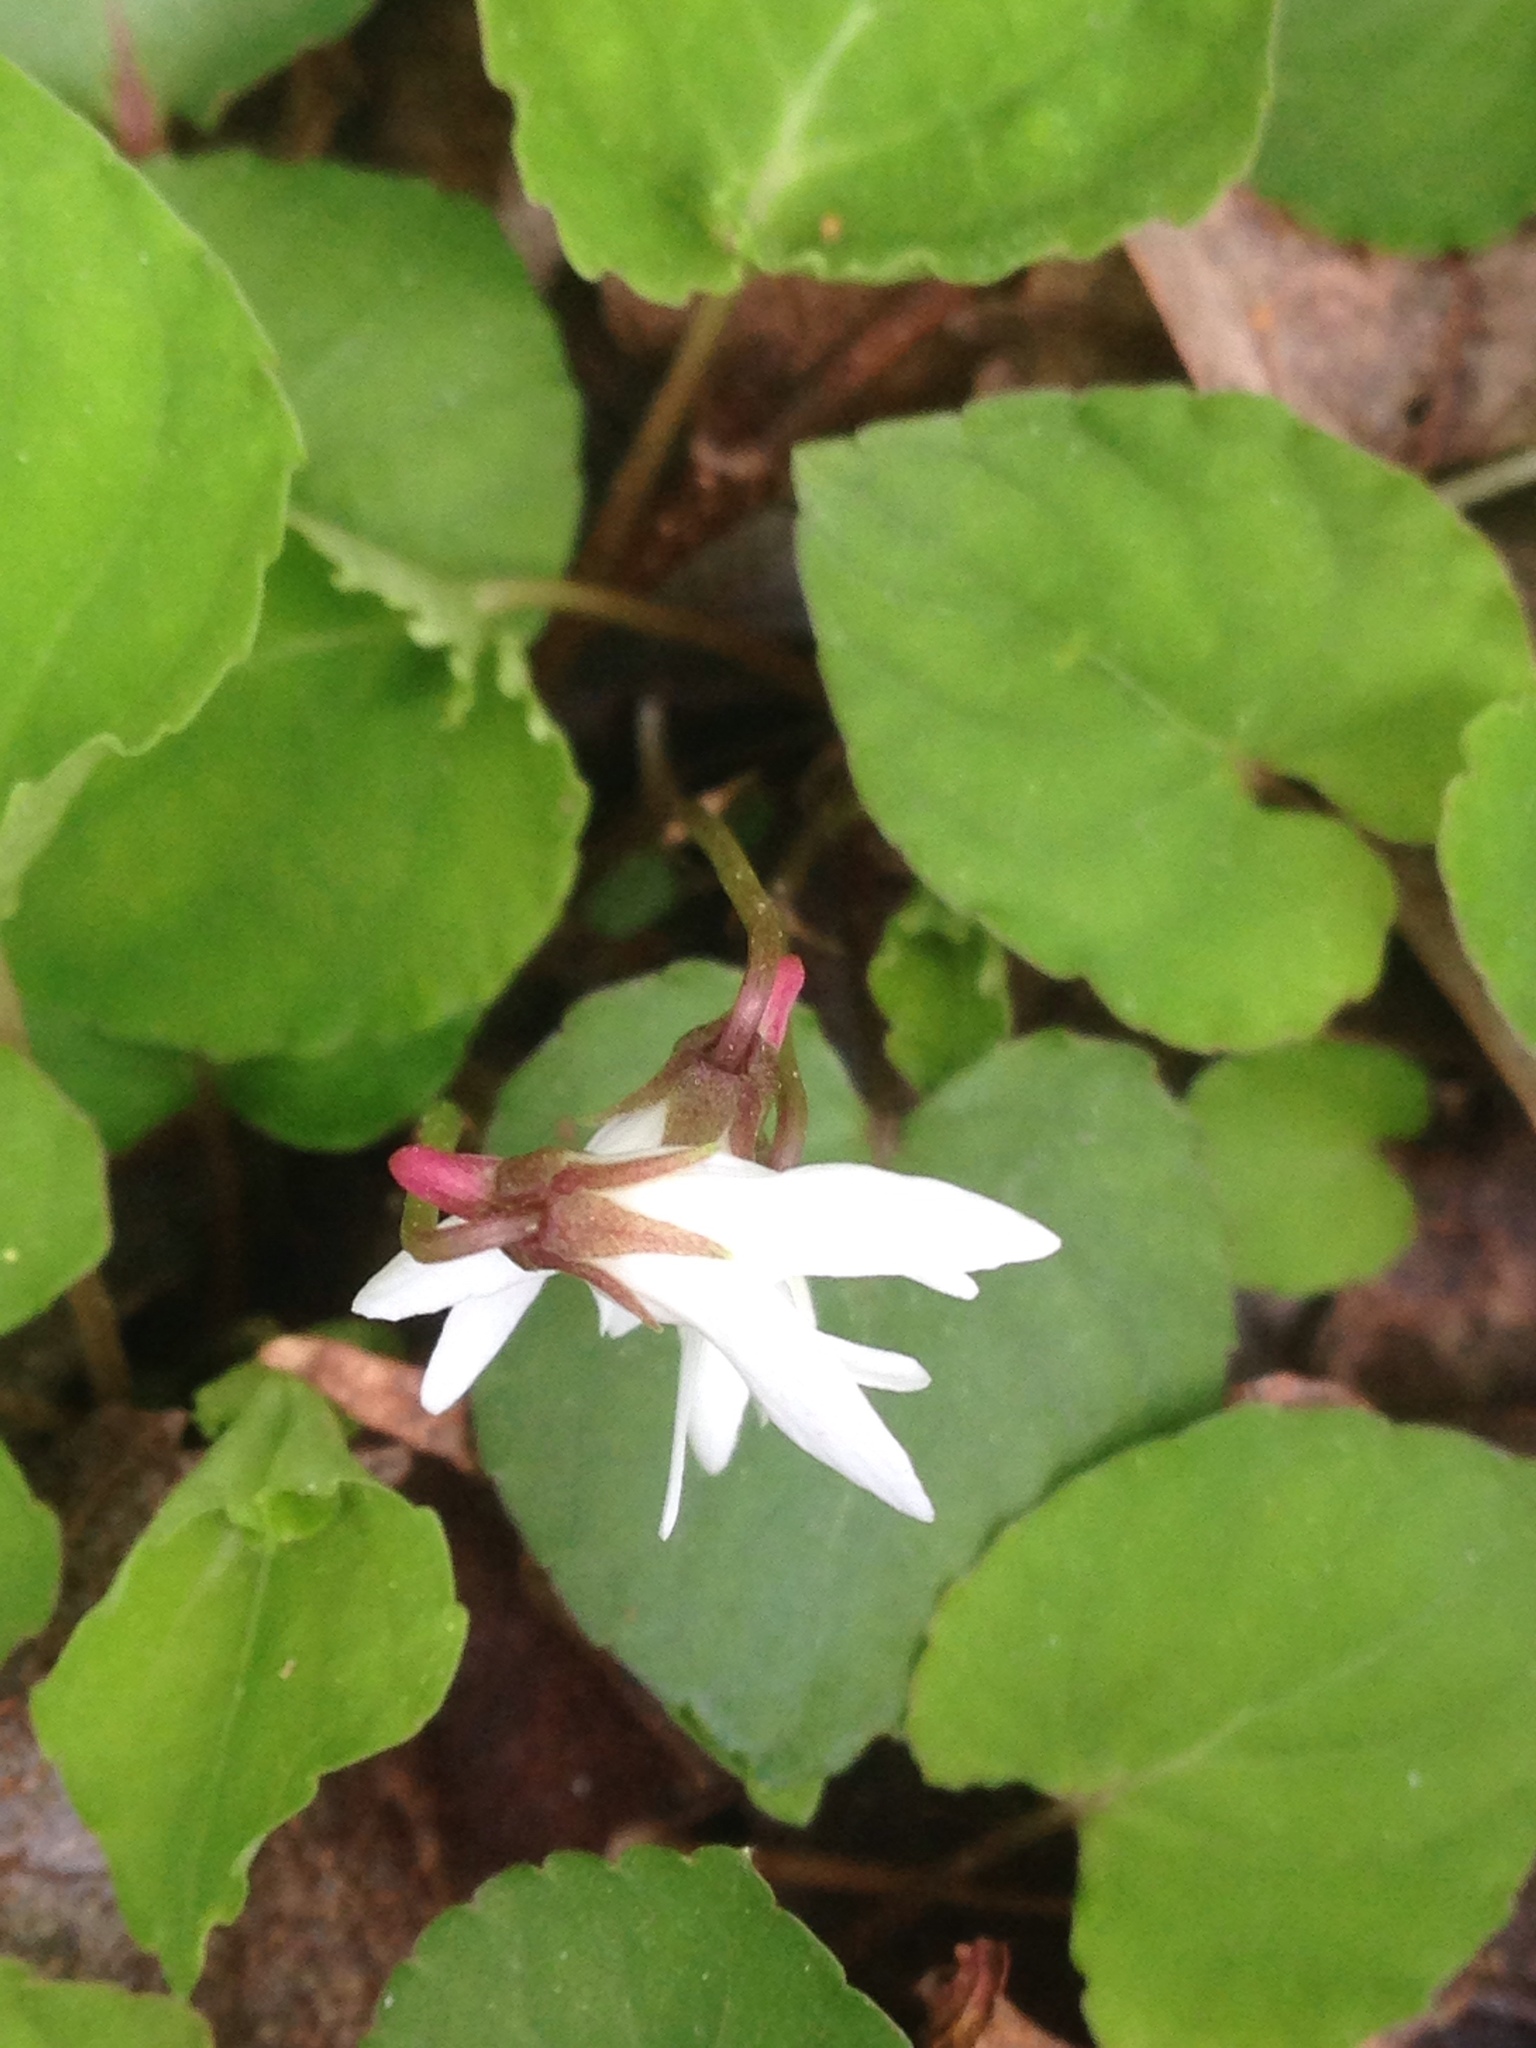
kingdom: Plantae
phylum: Tracheophyta
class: Magnoliopsida
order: Malpighiales
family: Violaceae
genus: Viola
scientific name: Viola blanda
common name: Sweet white violet
